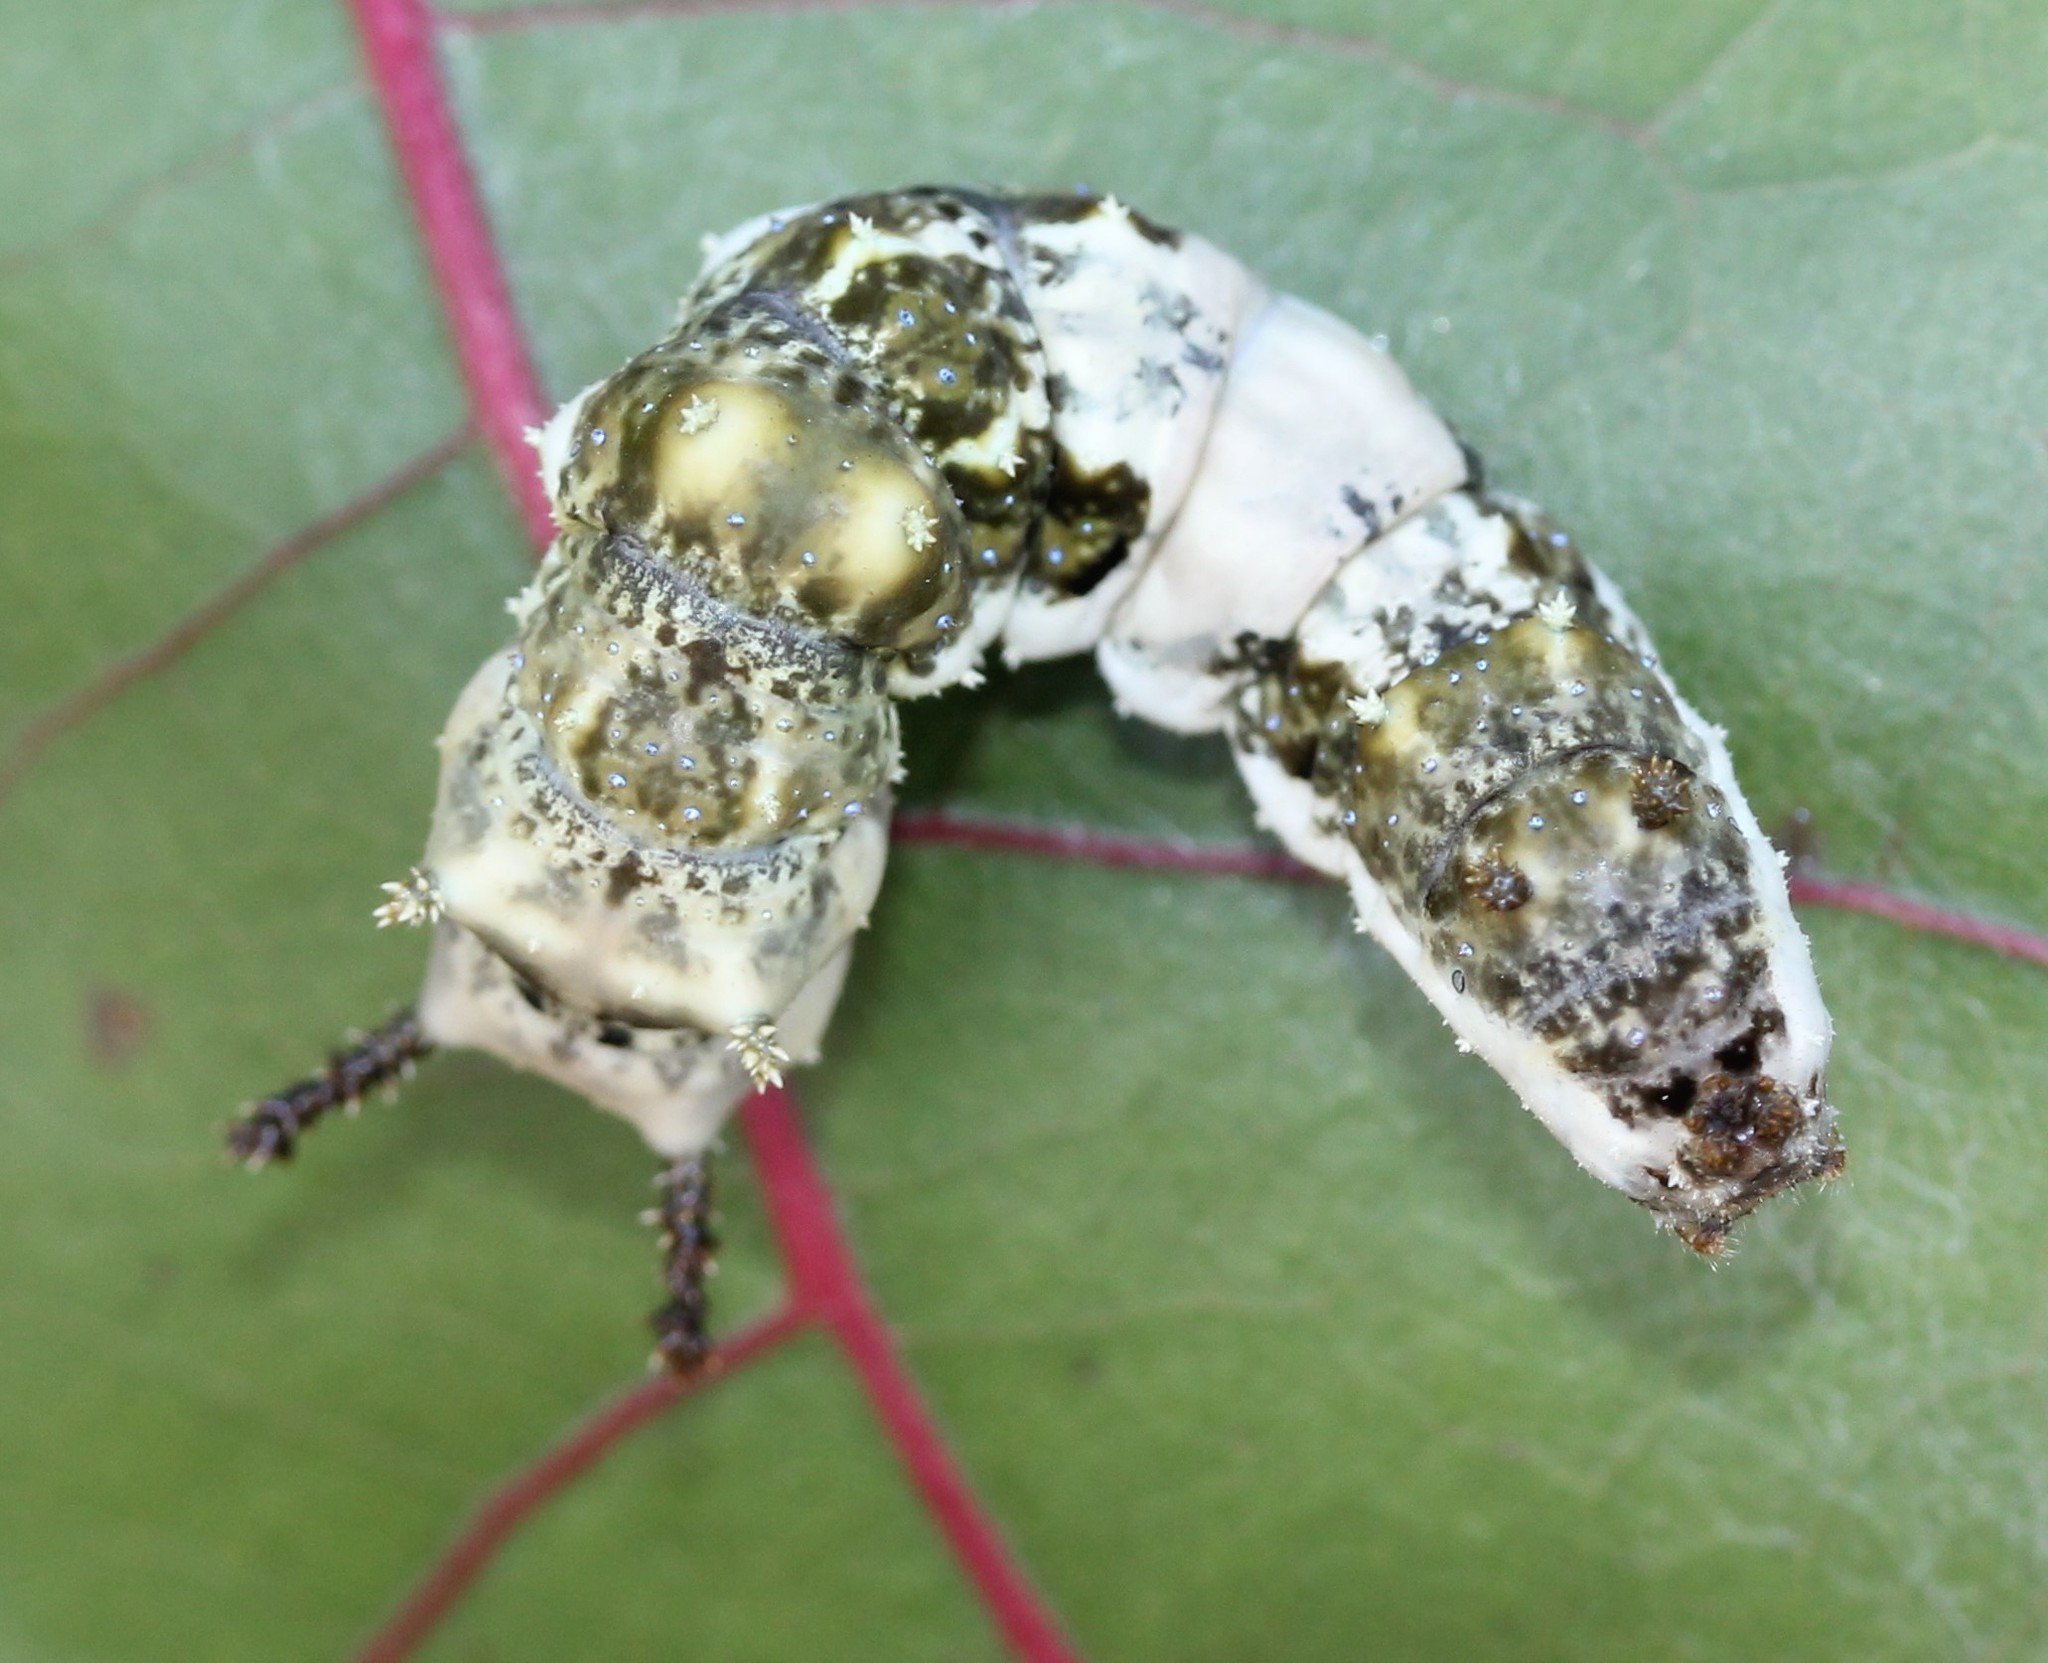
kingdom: Animalia
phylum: Arthropoda
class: Insecta
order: Lepidoptera
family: Nymphalidae
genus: Limenitis
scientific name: Limenitis archippus
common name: Viceroy
